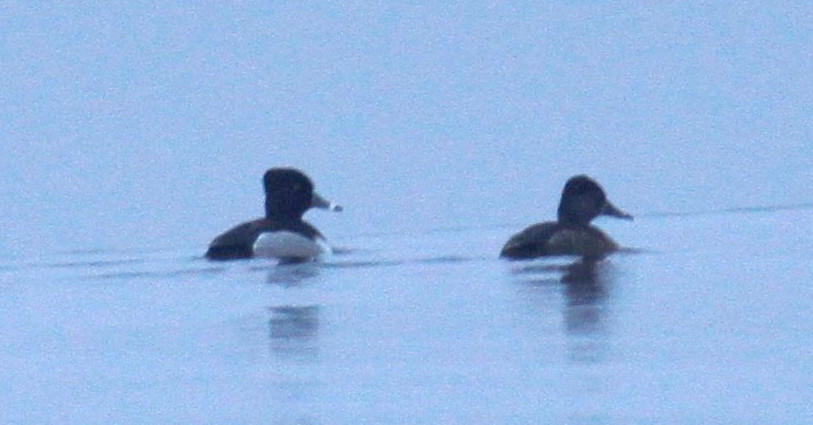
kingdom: Animalia
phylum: Chordata
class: Aves
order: Anseriformes
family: Anatidae
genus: Aythya
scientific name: Aythya collaris
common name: Ring-necked duck
